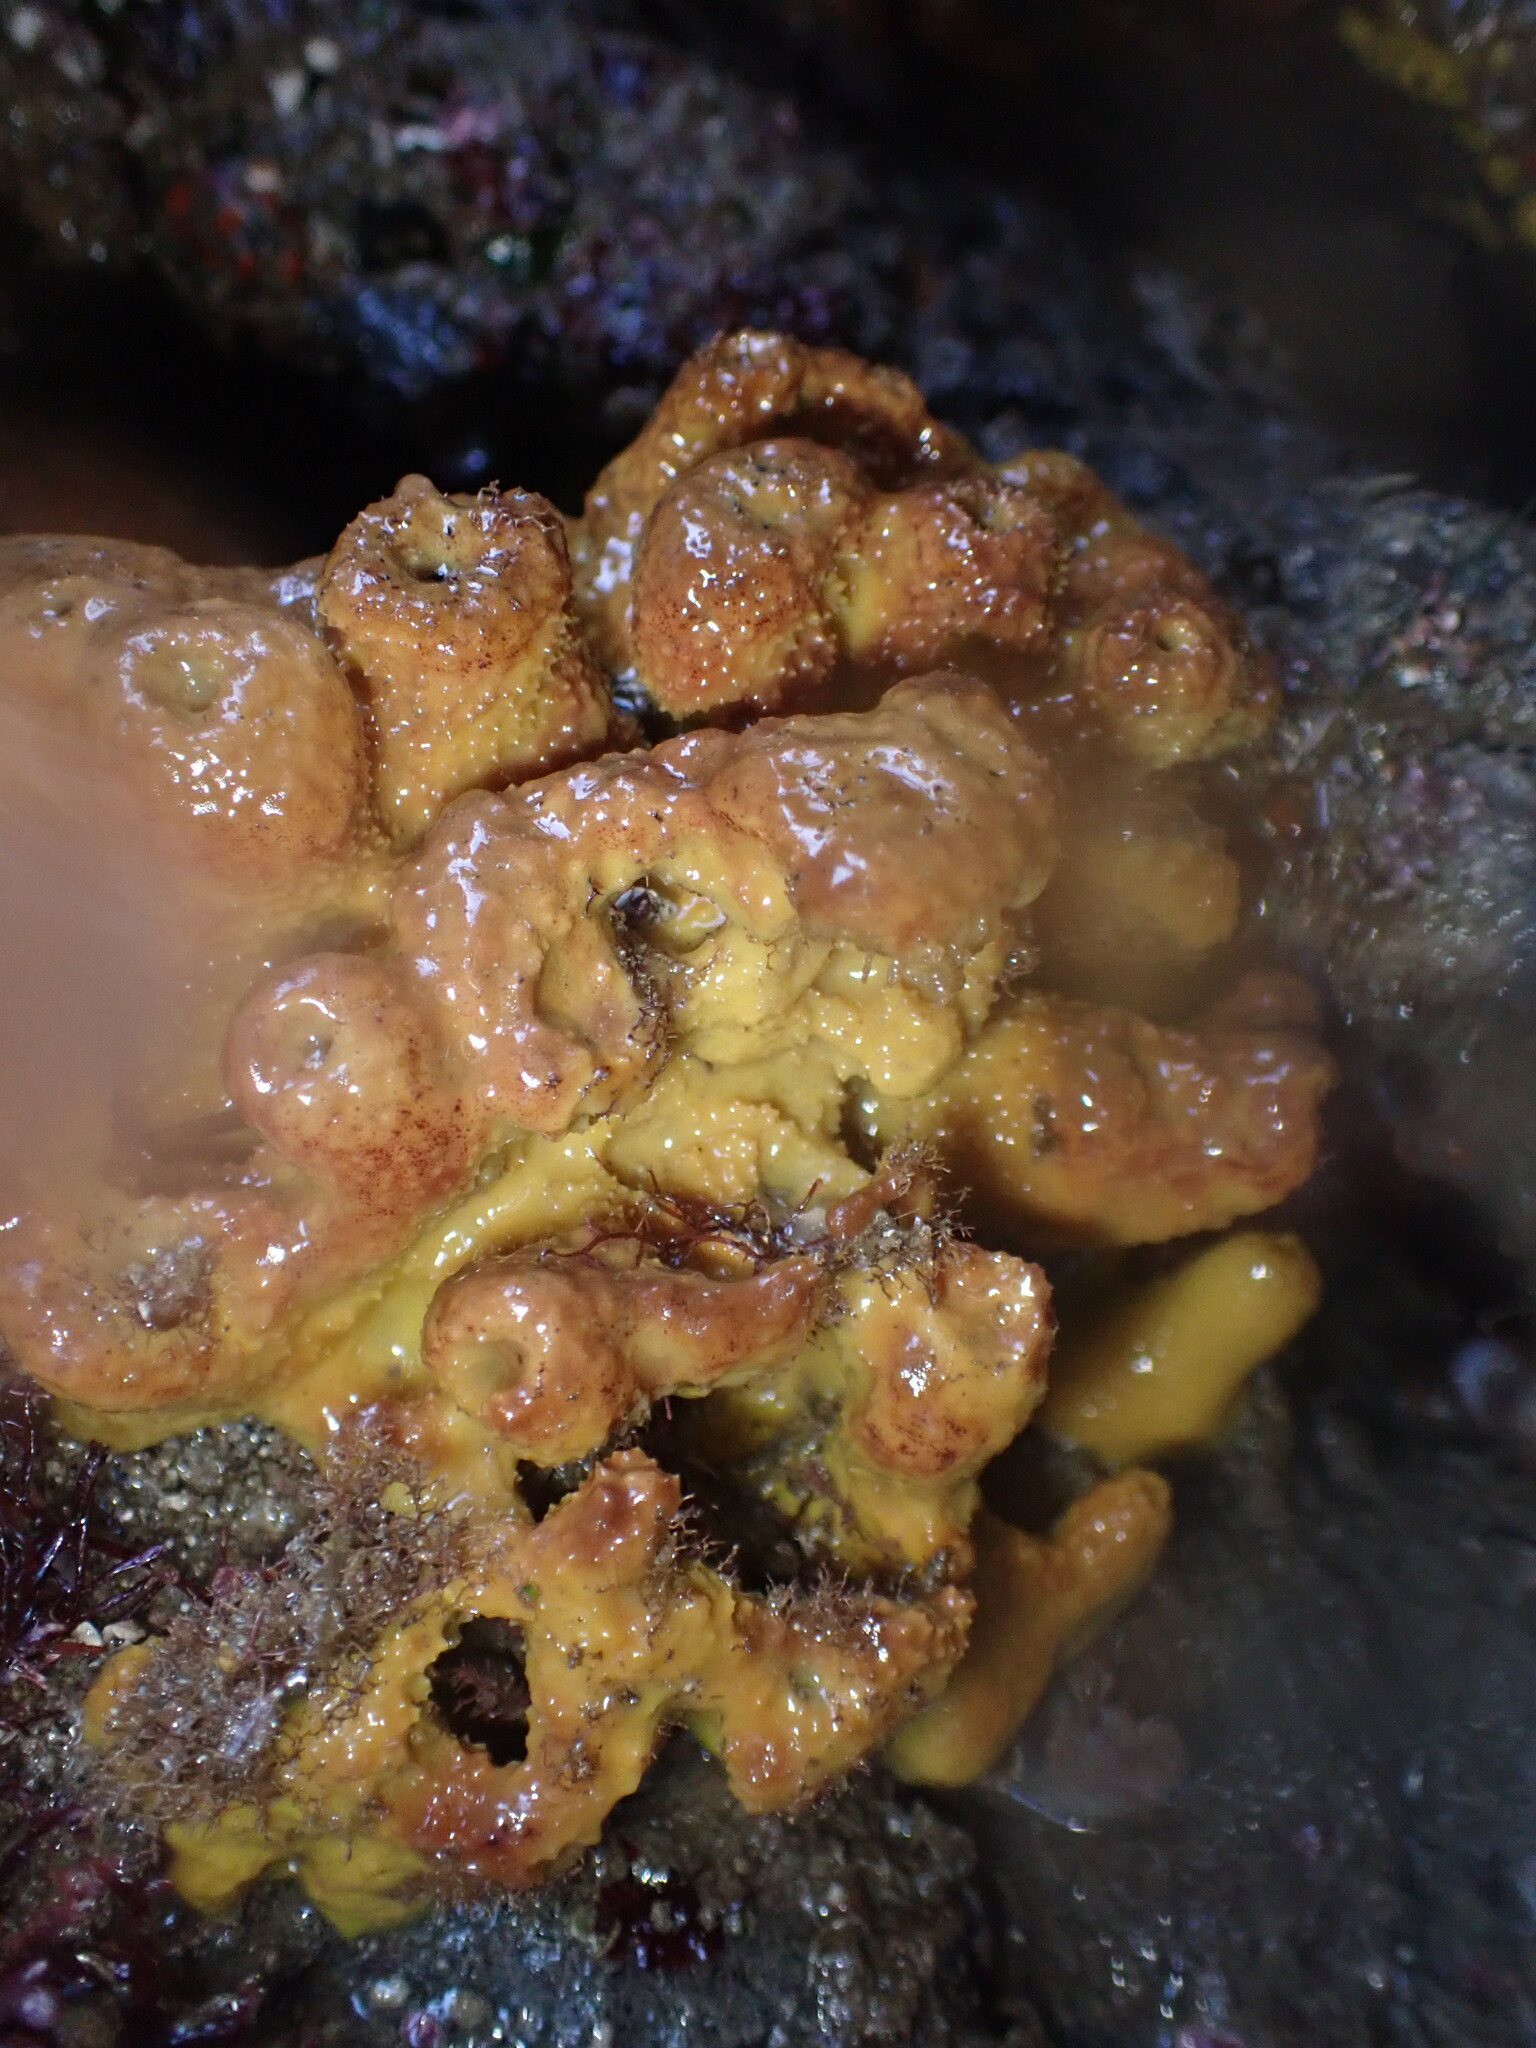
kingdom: Animalia
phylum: Porifera
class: Demospongiae
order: Verongiida
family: Aplysinidae
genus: Aiolochroia
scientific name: Aiolochroia thiona
